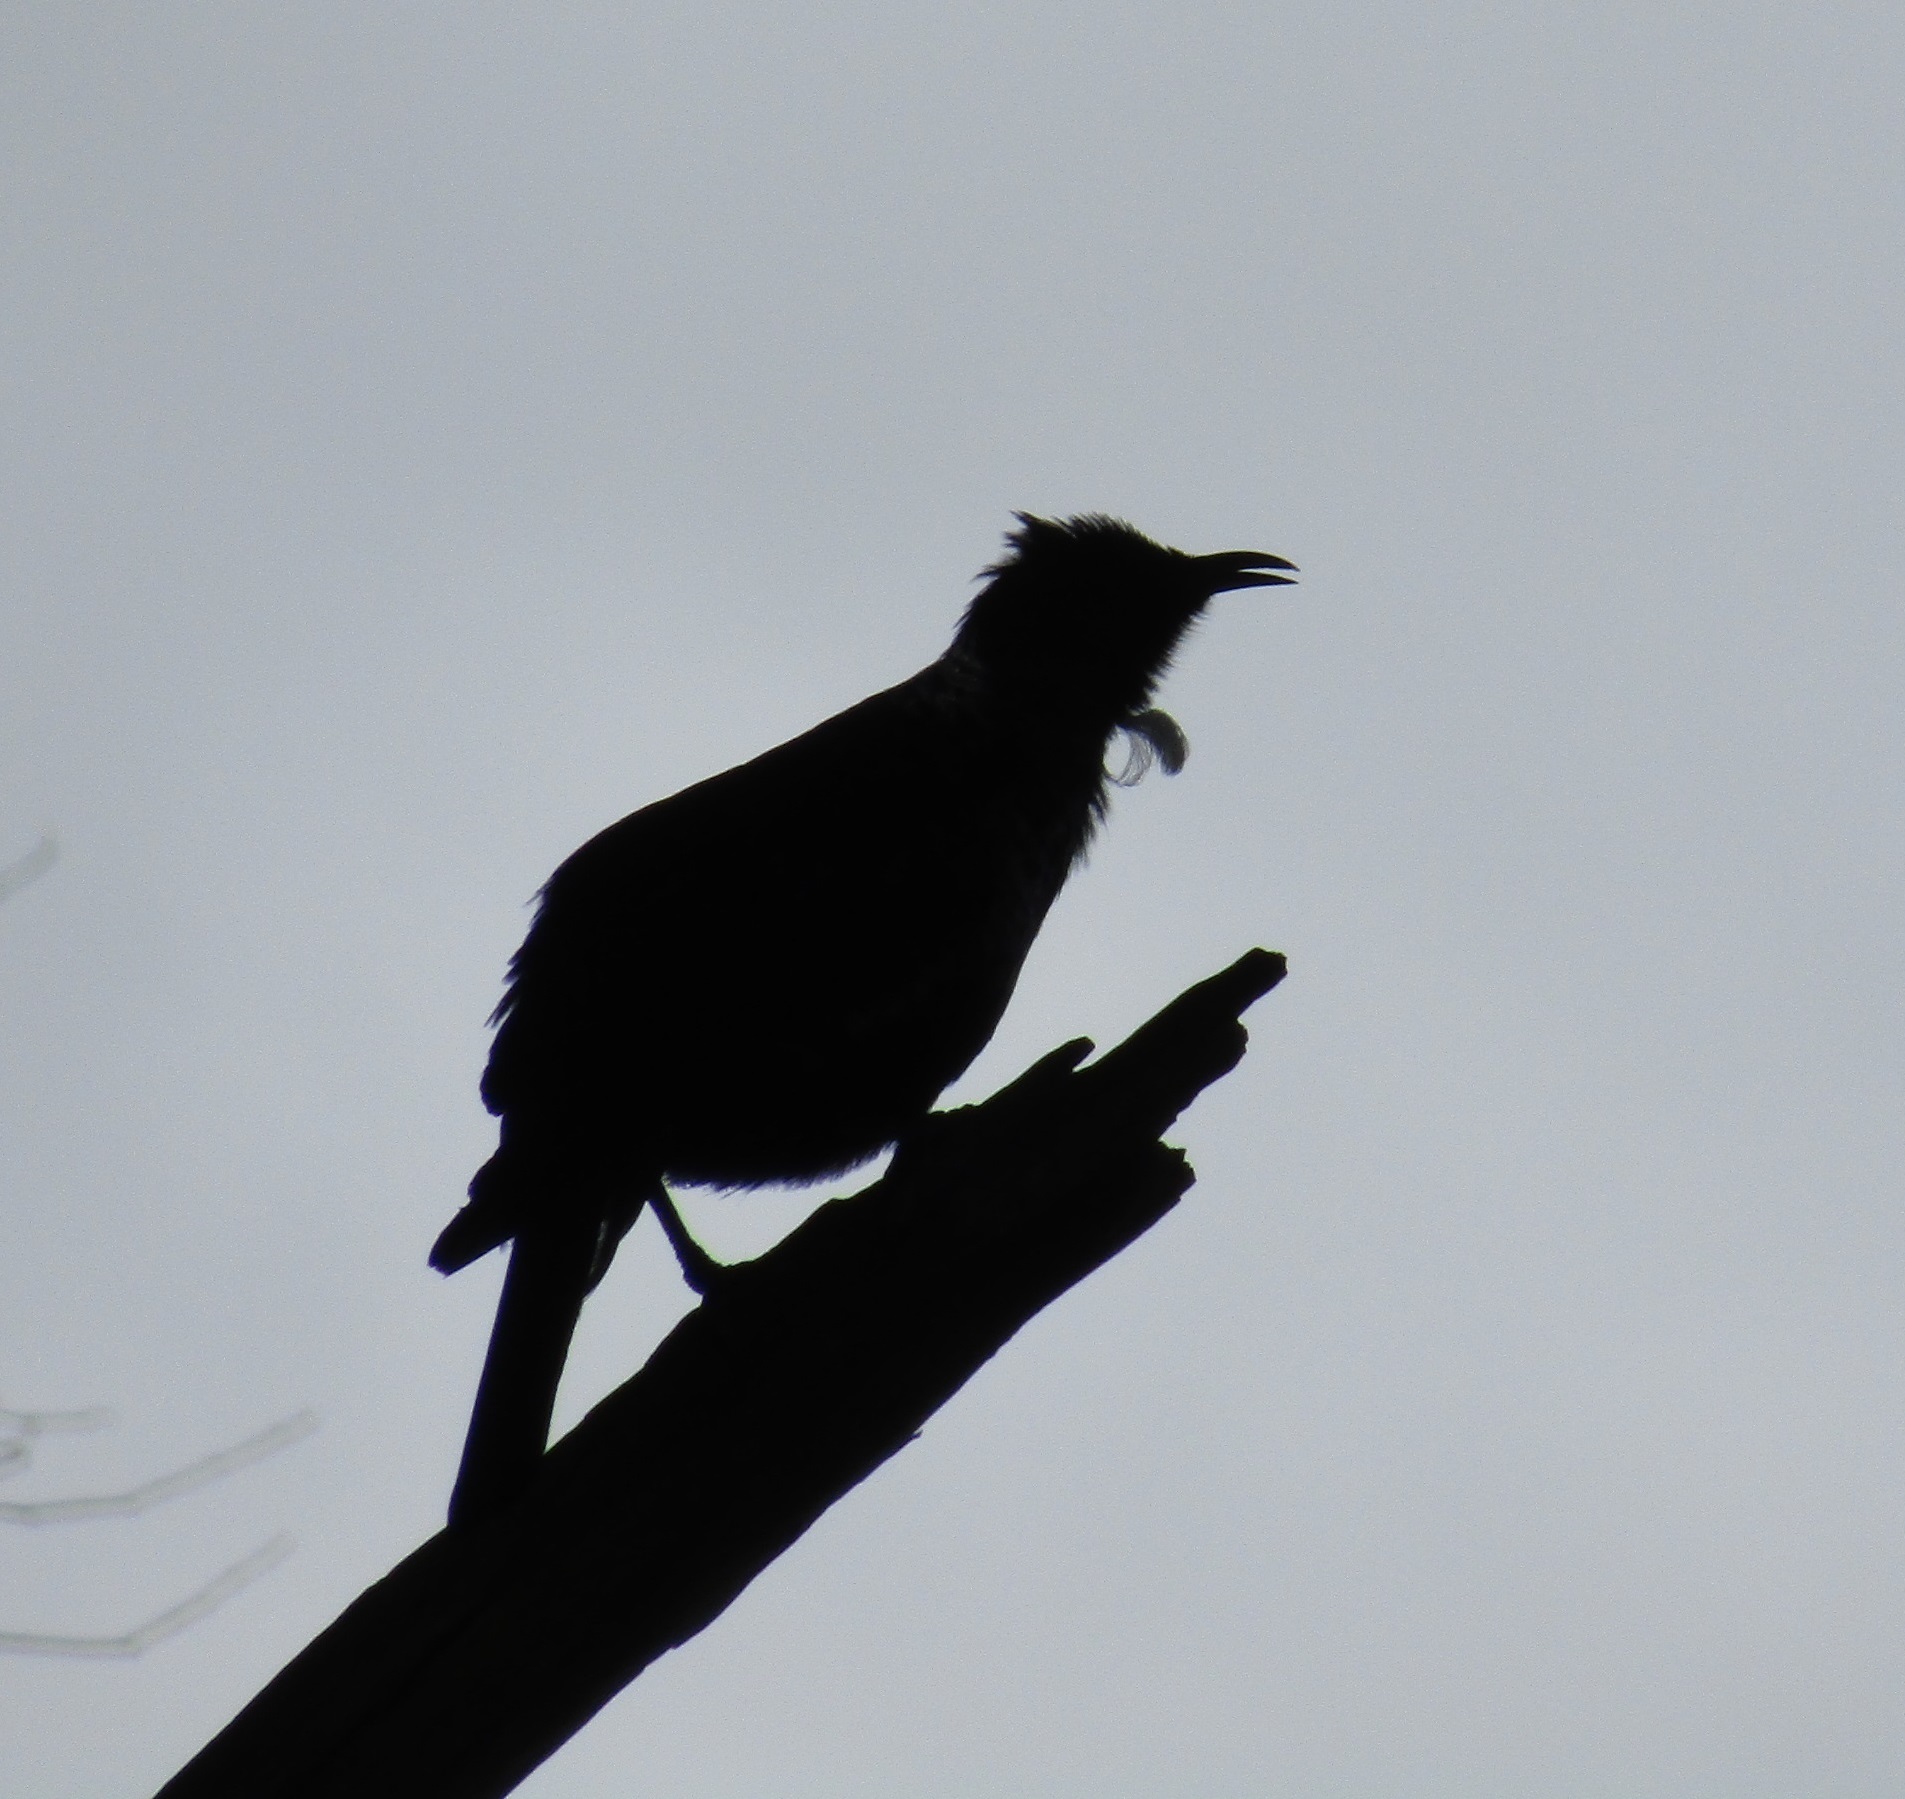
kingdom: Animalia
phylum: Chordata
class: Aves
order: Passeriformes
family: Meliphagidae
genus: Prosthemadera
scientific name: Prosthemadera novaeseelandiae
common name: Tui
